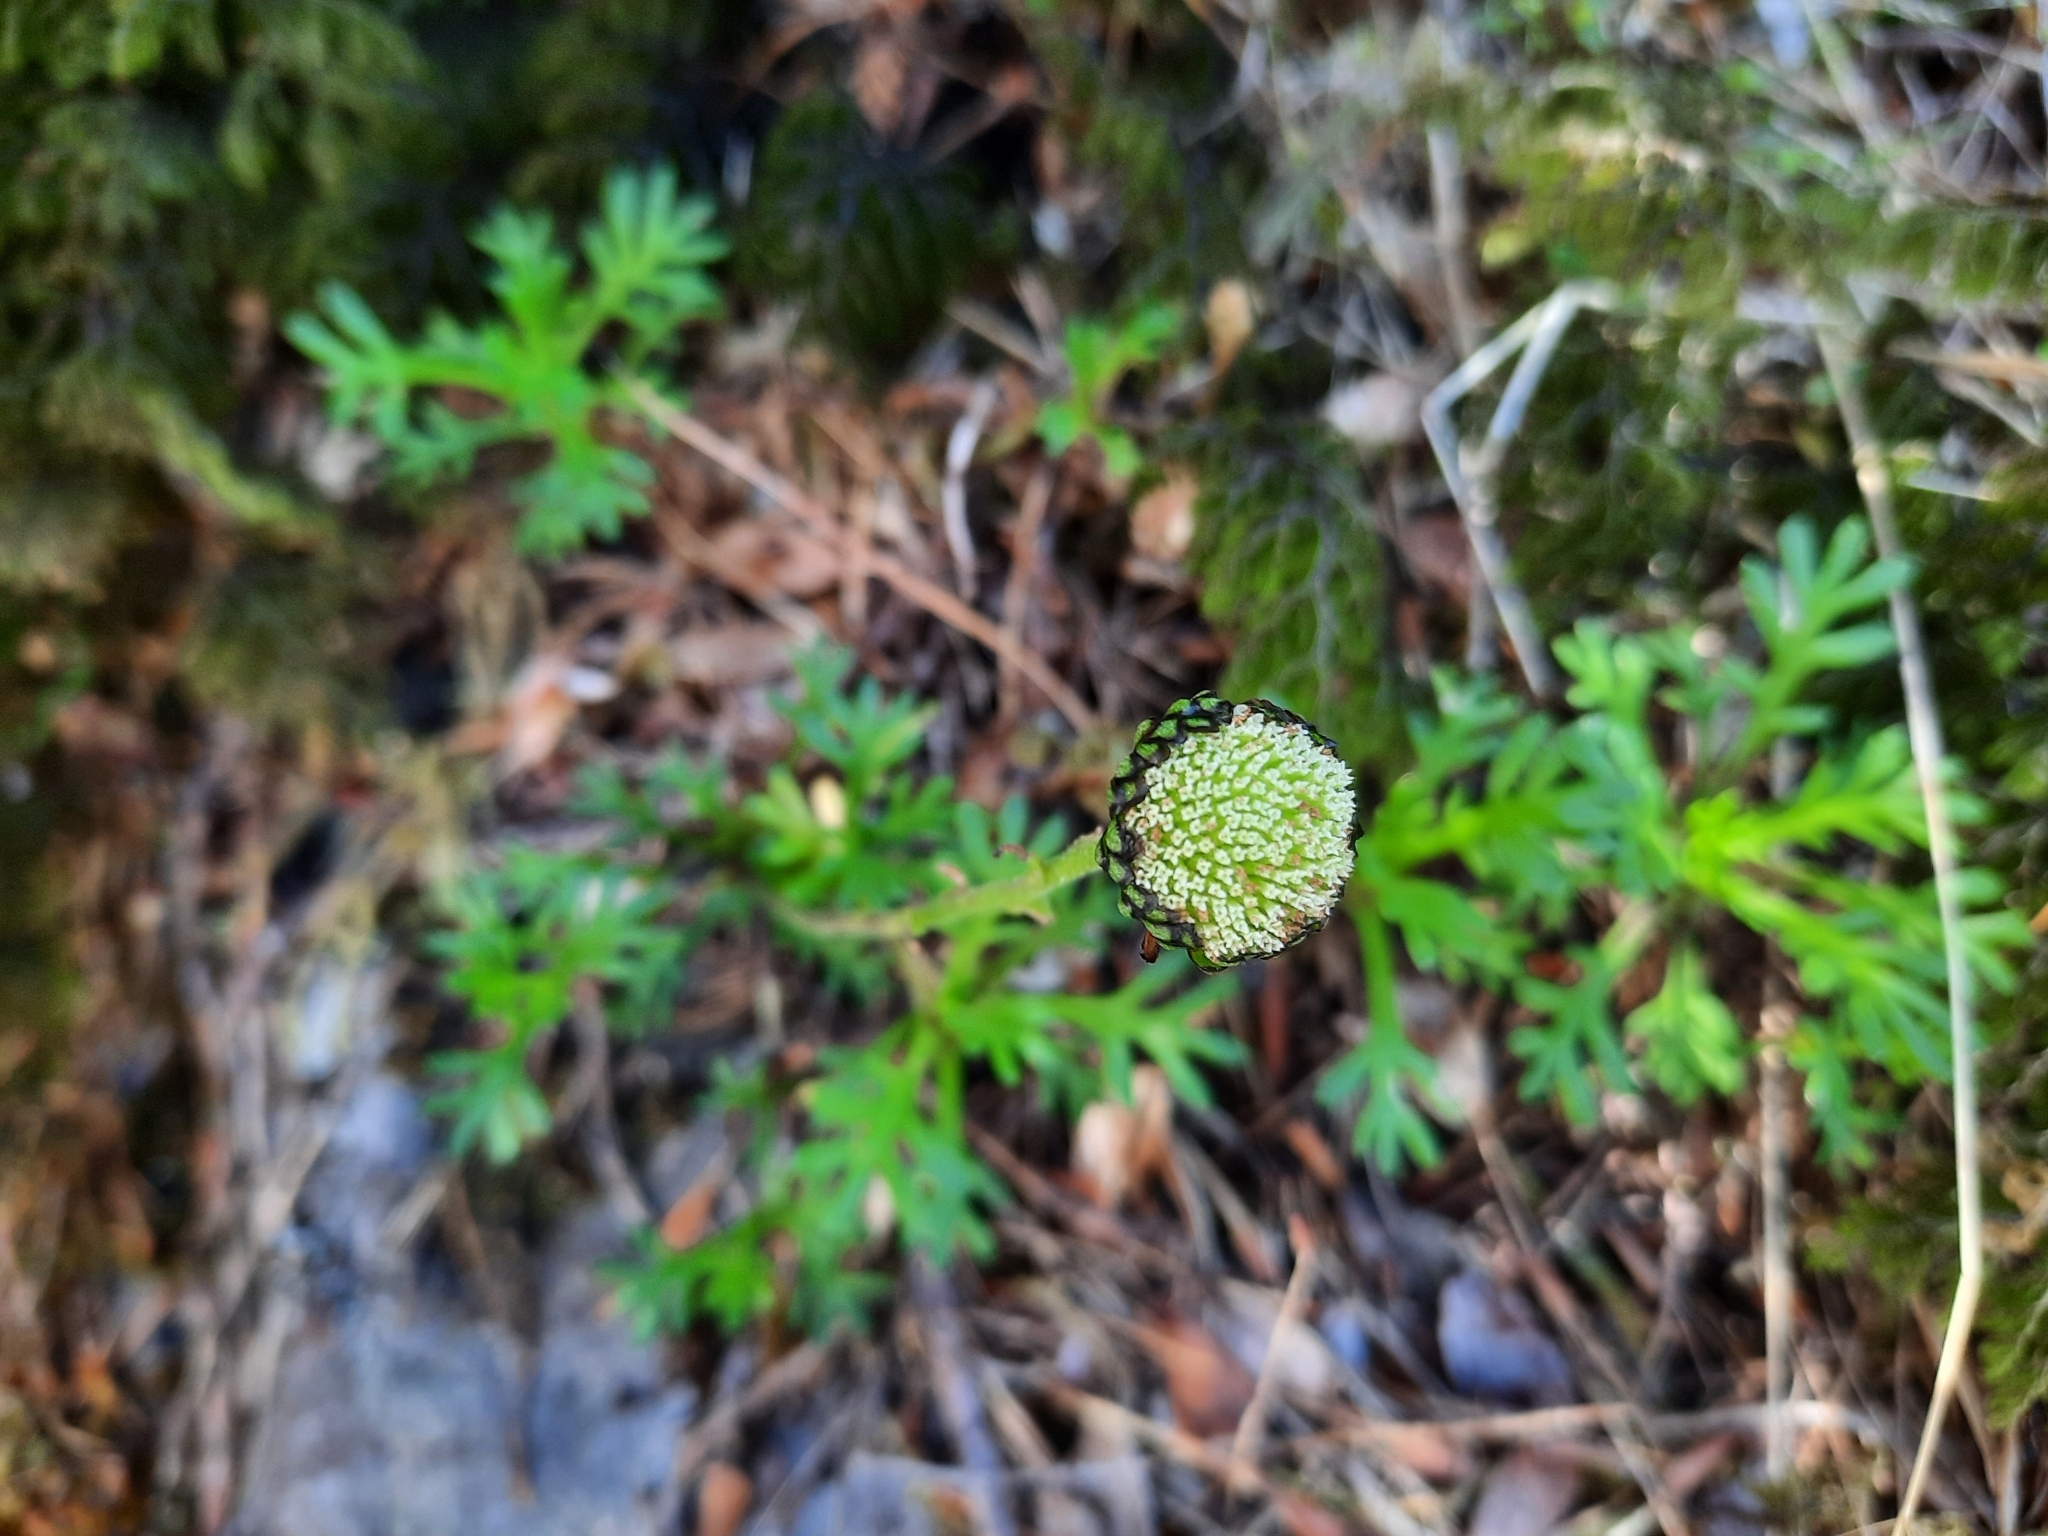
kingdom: Plantae
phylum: Tracheophyta
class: Magnoliopsida
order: Asterales
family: Asteraceae
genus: Leptinella
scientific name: Leptinella pyrethrifolia
